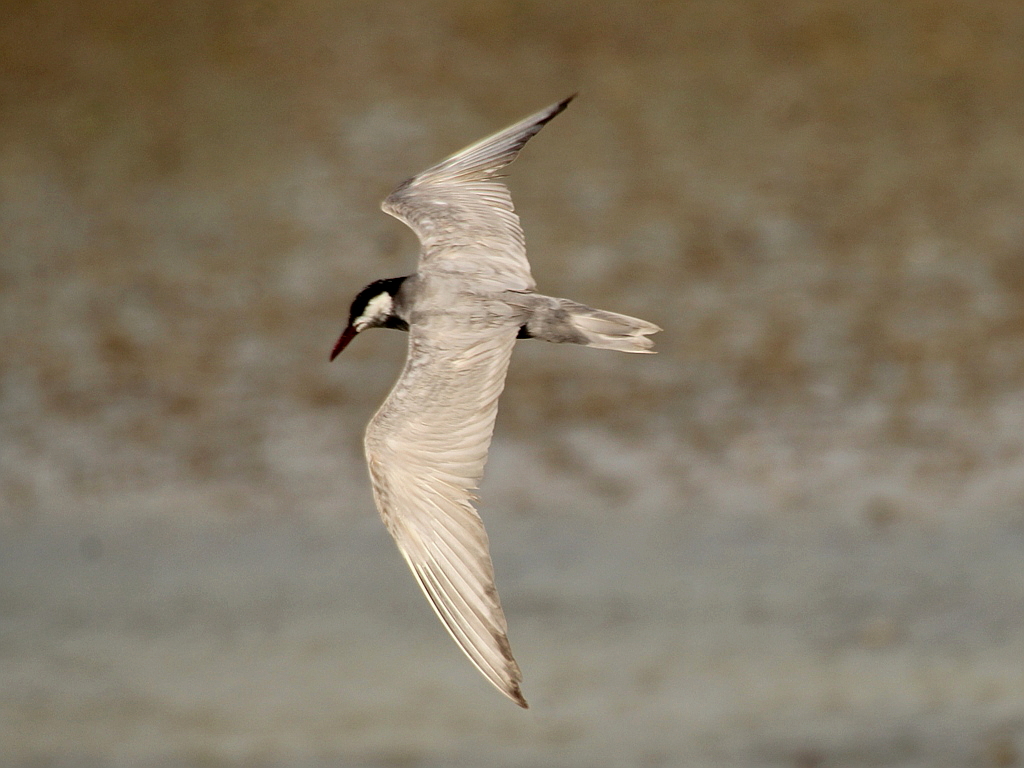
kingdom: Animalia
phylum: Chordata
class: Aves
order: Charadriiformes
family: Laridae
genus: Chlidonias
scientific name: Chlidonias hybrida
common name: Whiskered tern
